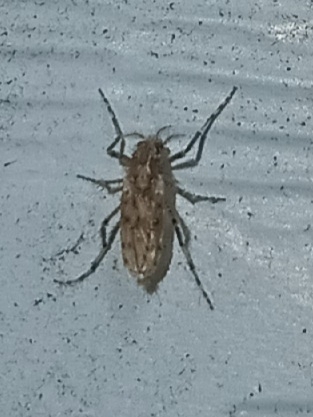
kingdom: Animalia
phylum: Arthropoda
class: Insecta
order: Diptera
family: Chaoboridae
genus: Chaoborus
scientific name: Chaoborus punctipennis
